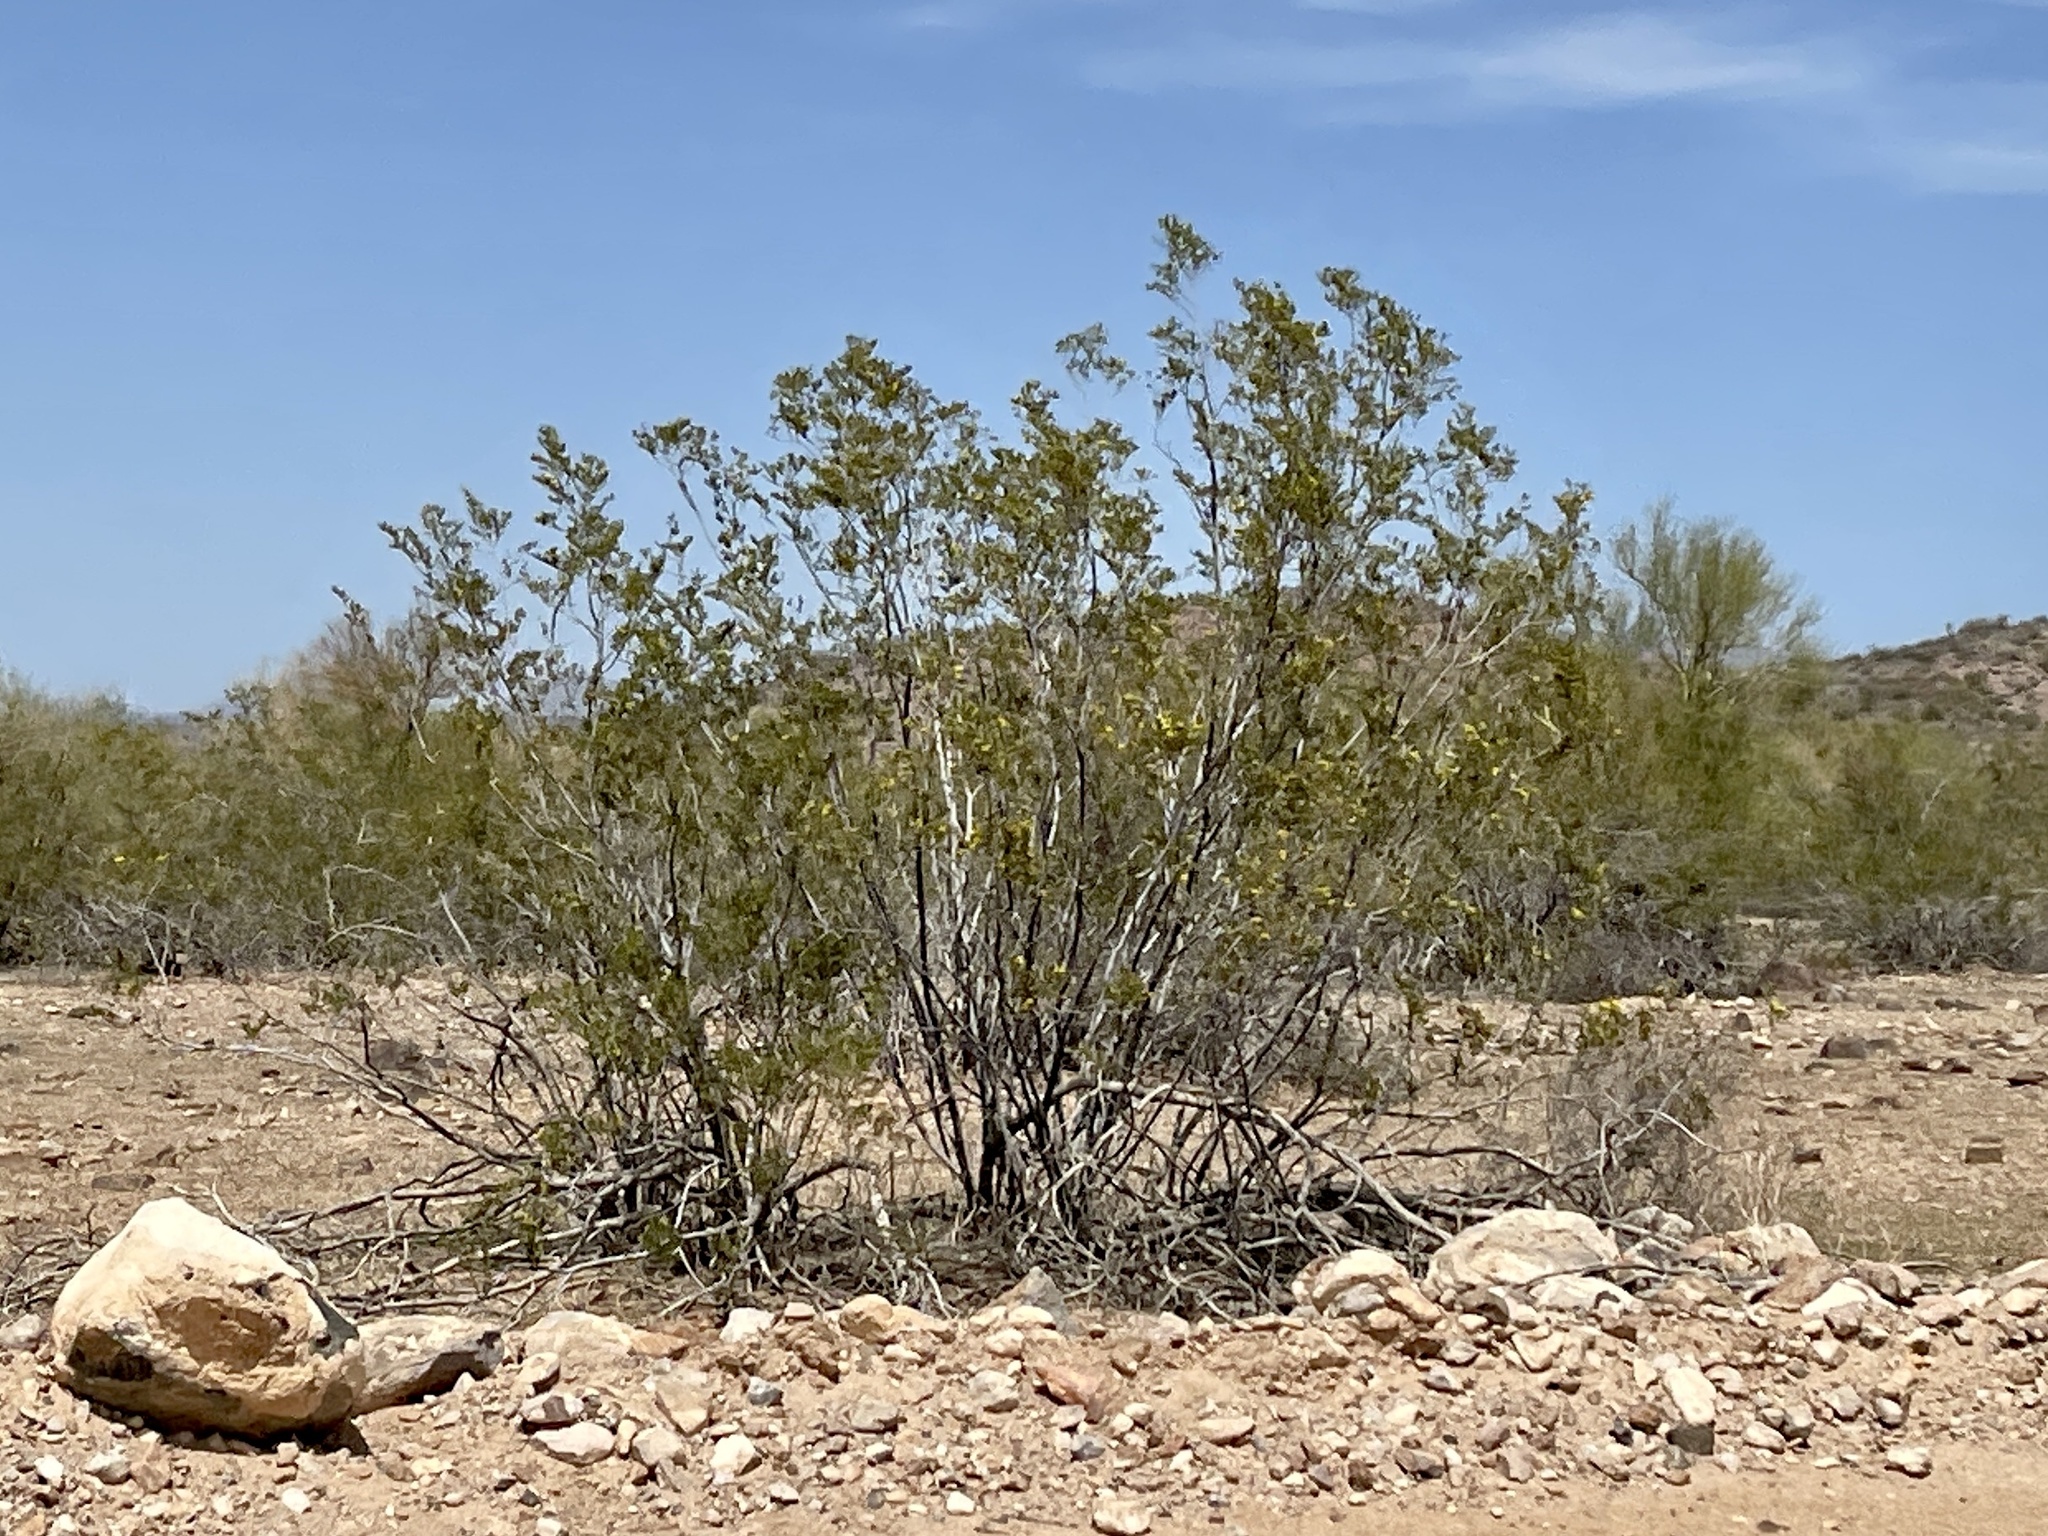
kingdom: Plantae
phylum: Tracheophyta
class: Magnoliopsida
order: Zygophyllales
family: Zygophyllaceae
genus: Larrea
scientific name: Larrea tridentata
